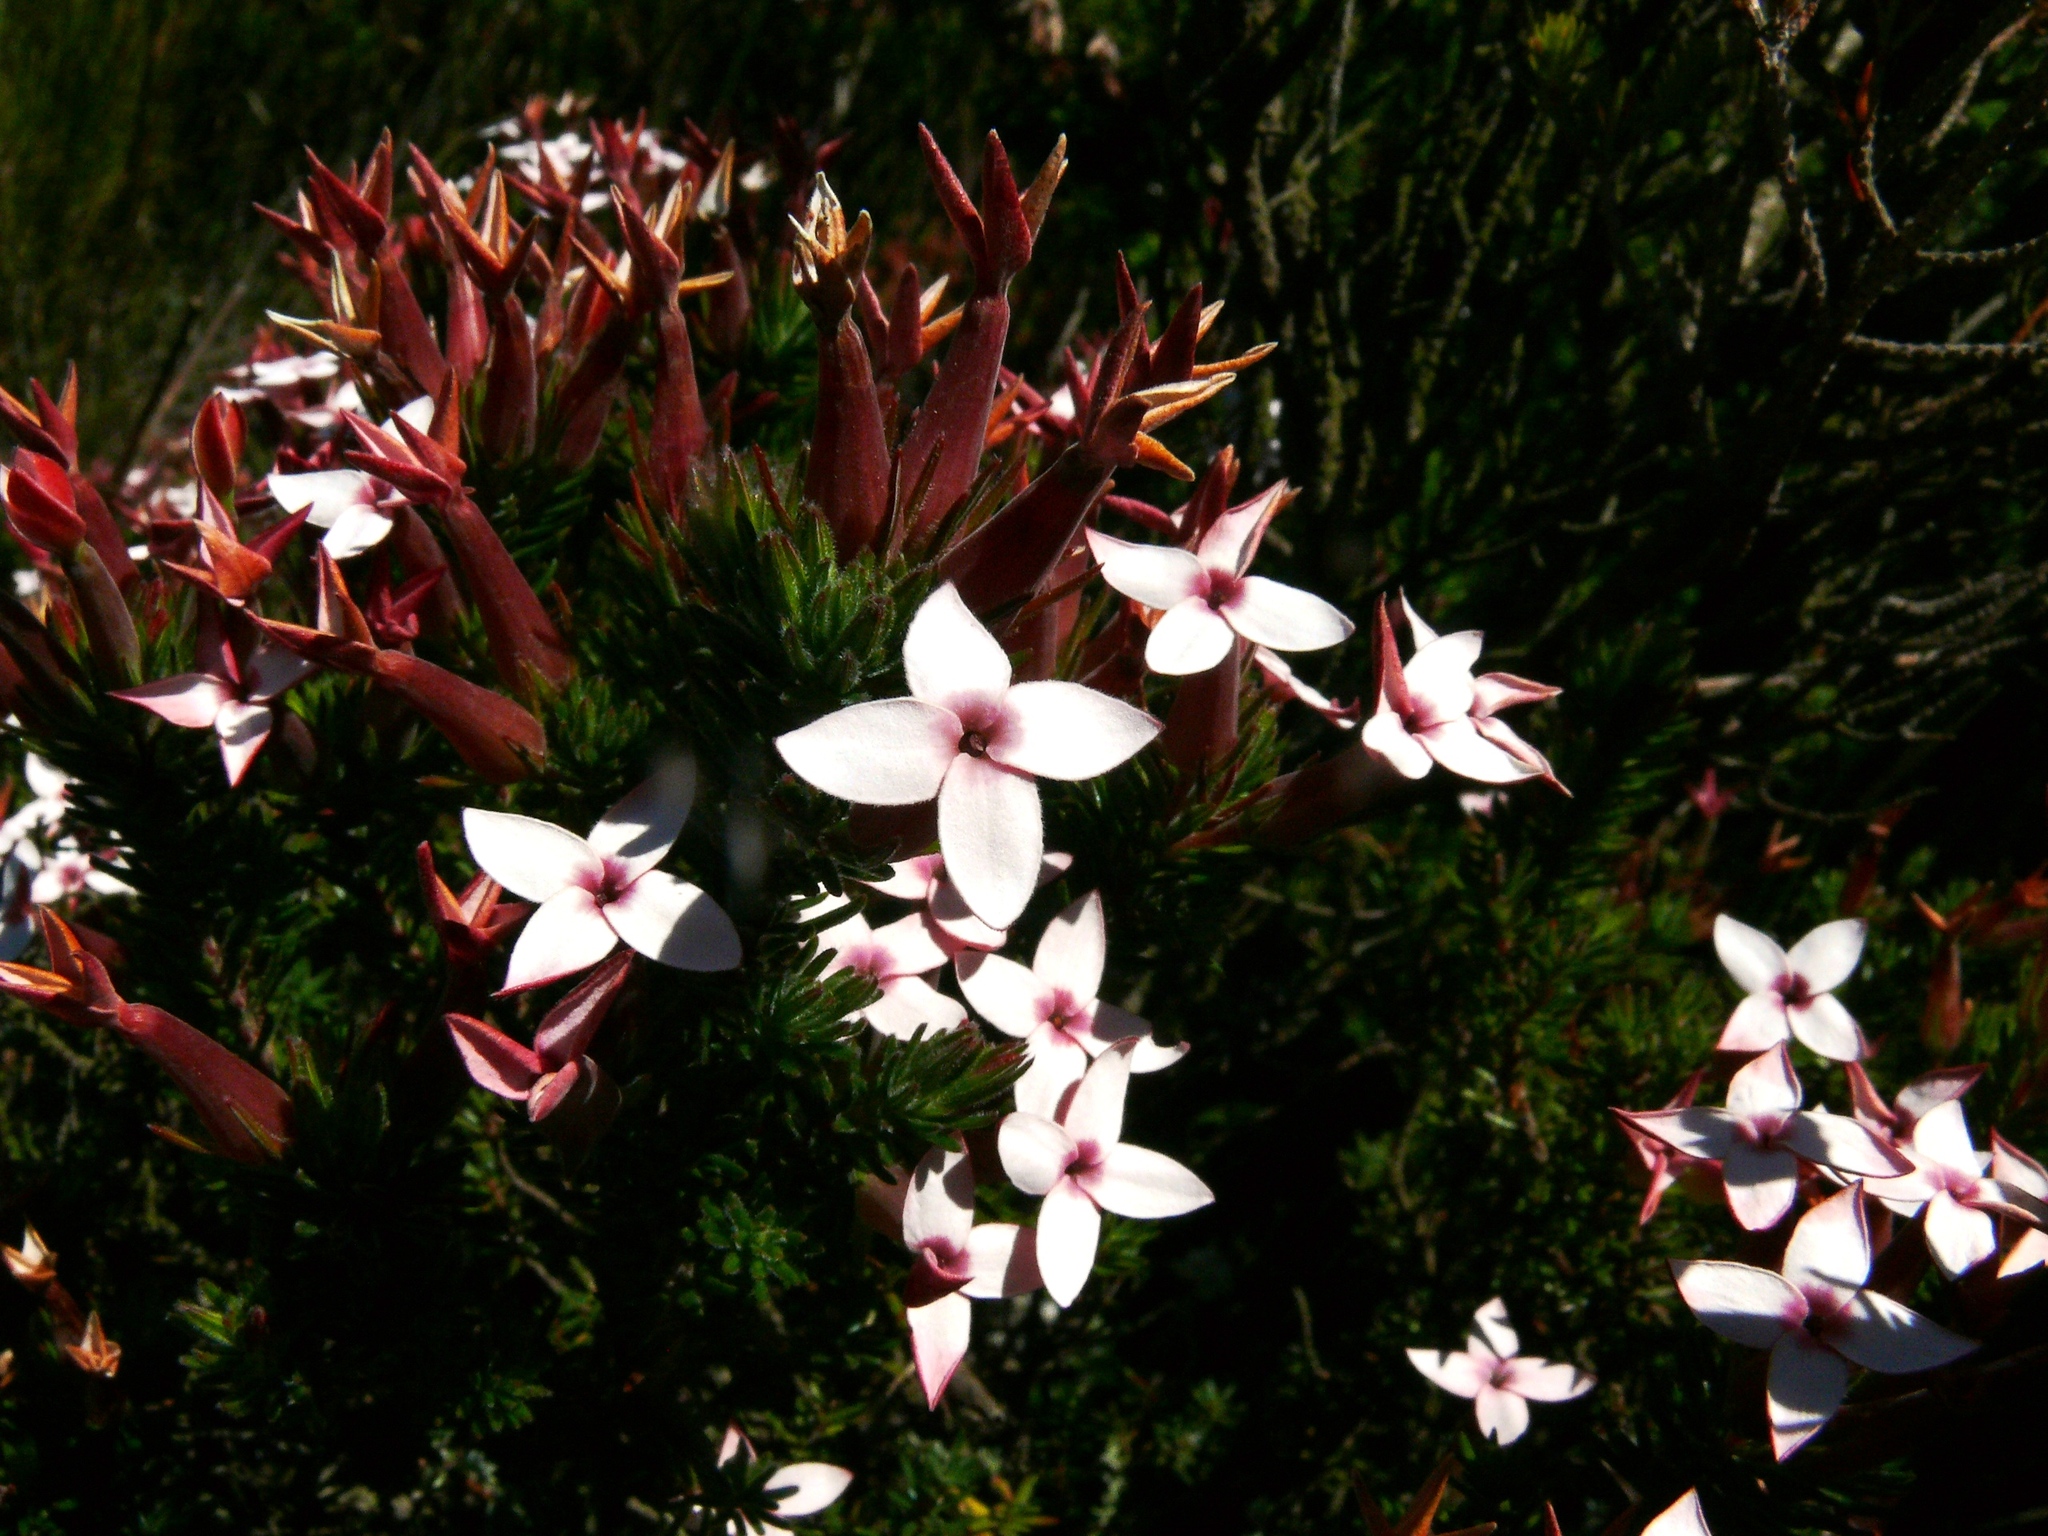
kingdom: Plantae
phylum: Tracheophyta
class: Magnoliopsida
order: Ericales
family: Ericaceae
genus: Erica
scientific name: Erica turrisbabylonica
